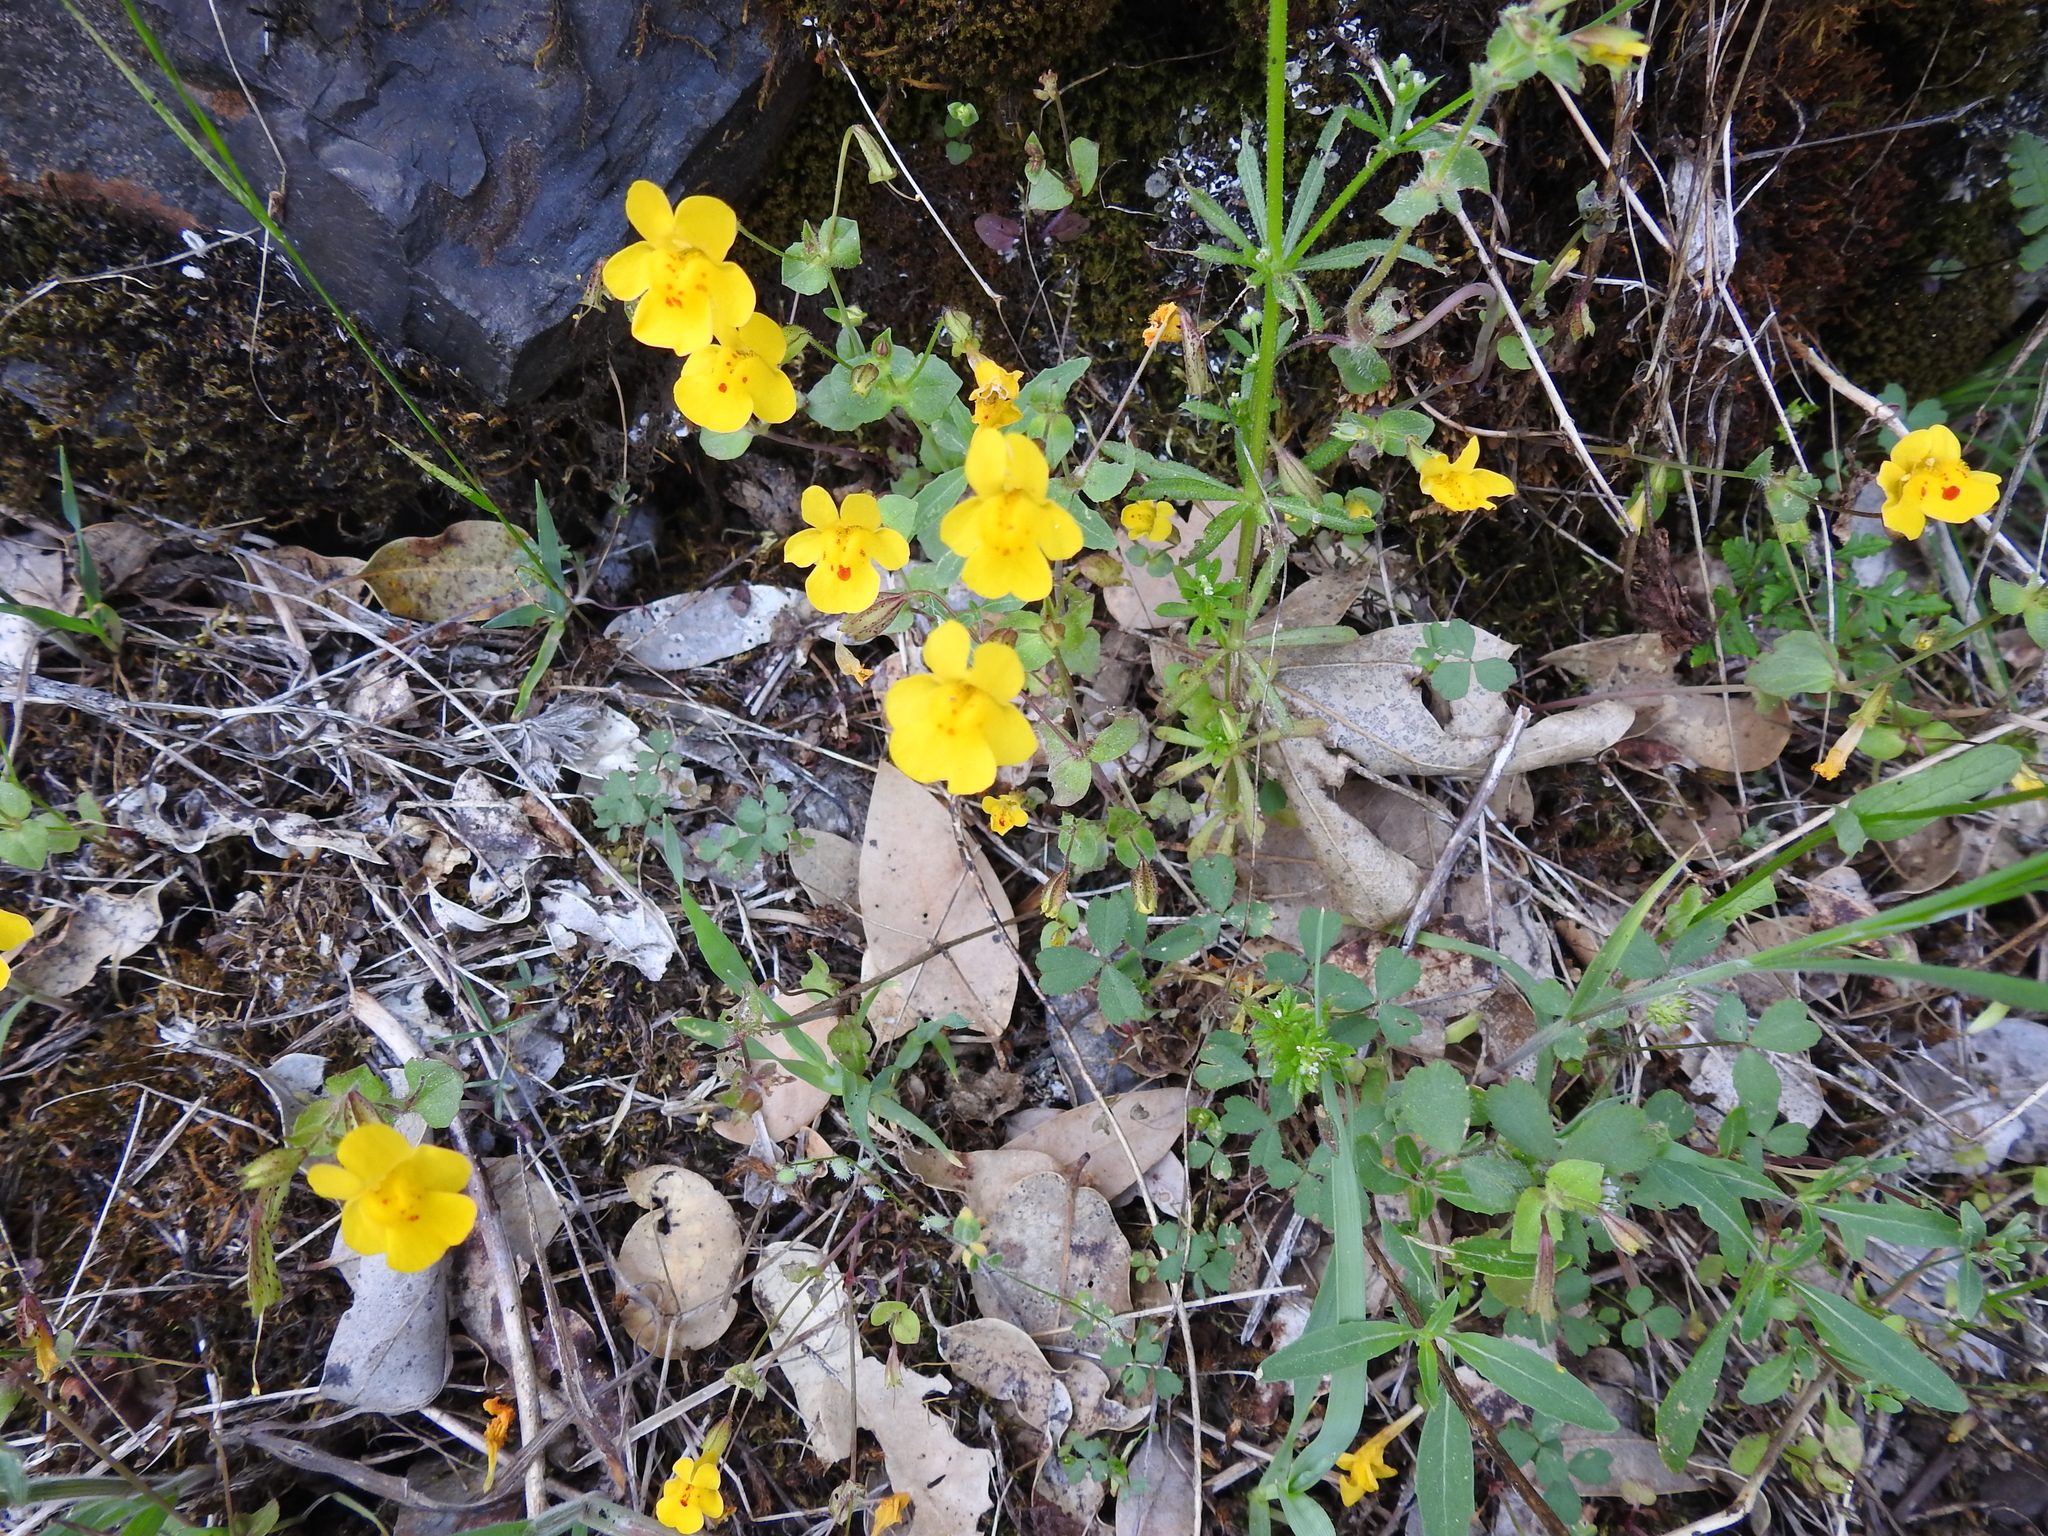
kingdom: Plantae
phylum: Tracheophyta
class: Magnoliopsida
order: Lamiales
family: Phrymaceae
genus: Erythranthe
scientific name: Erythranthe guttata
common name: Monkeyflower
